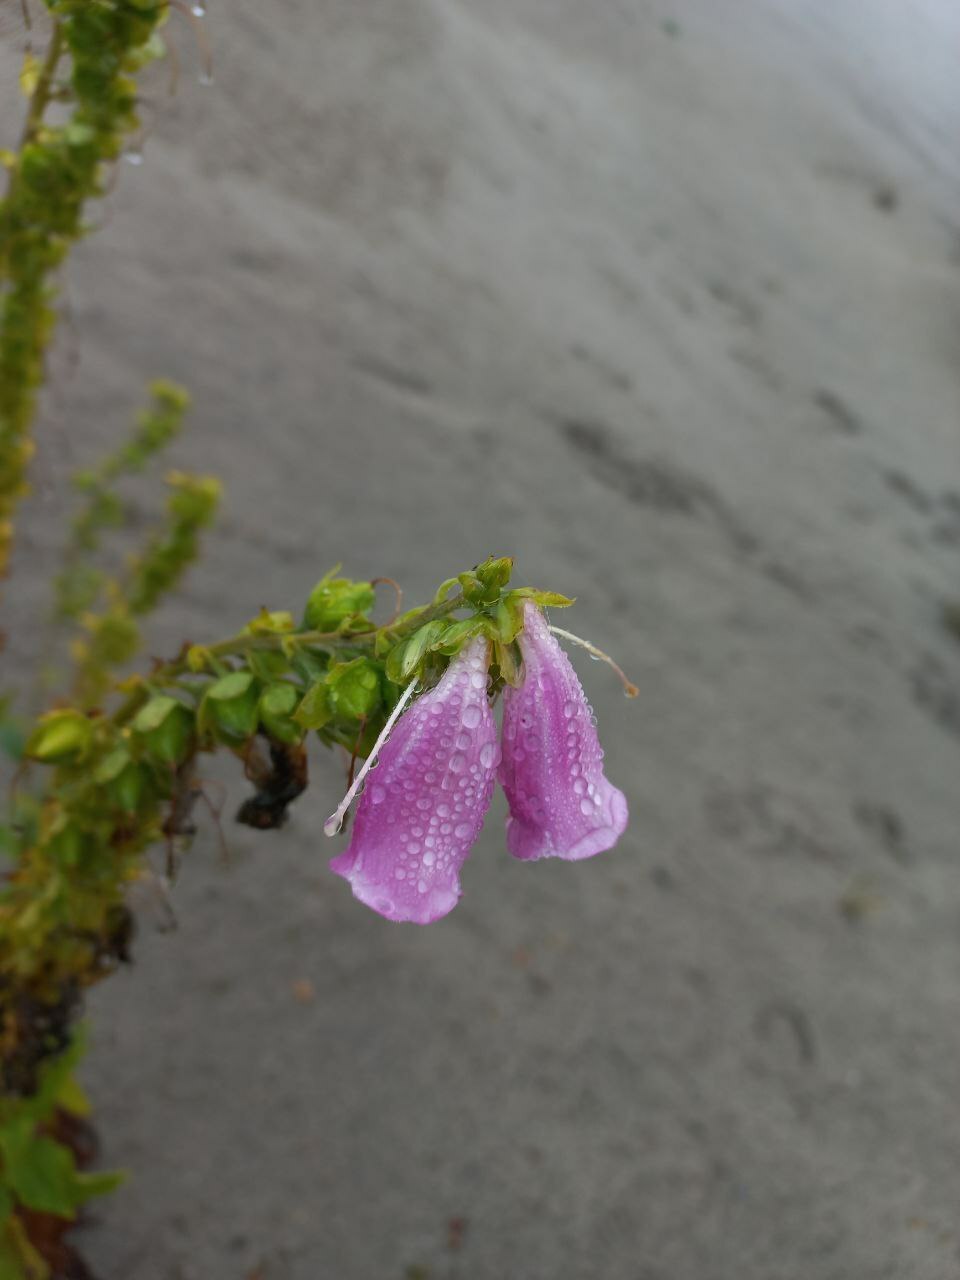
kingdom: Plantae
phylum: Tracheophyta
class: Magnoliopsida
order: Lamiales
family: Plantaginaceae
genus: Digitalis
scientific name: Digitalis purpurea
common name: Foxglove
